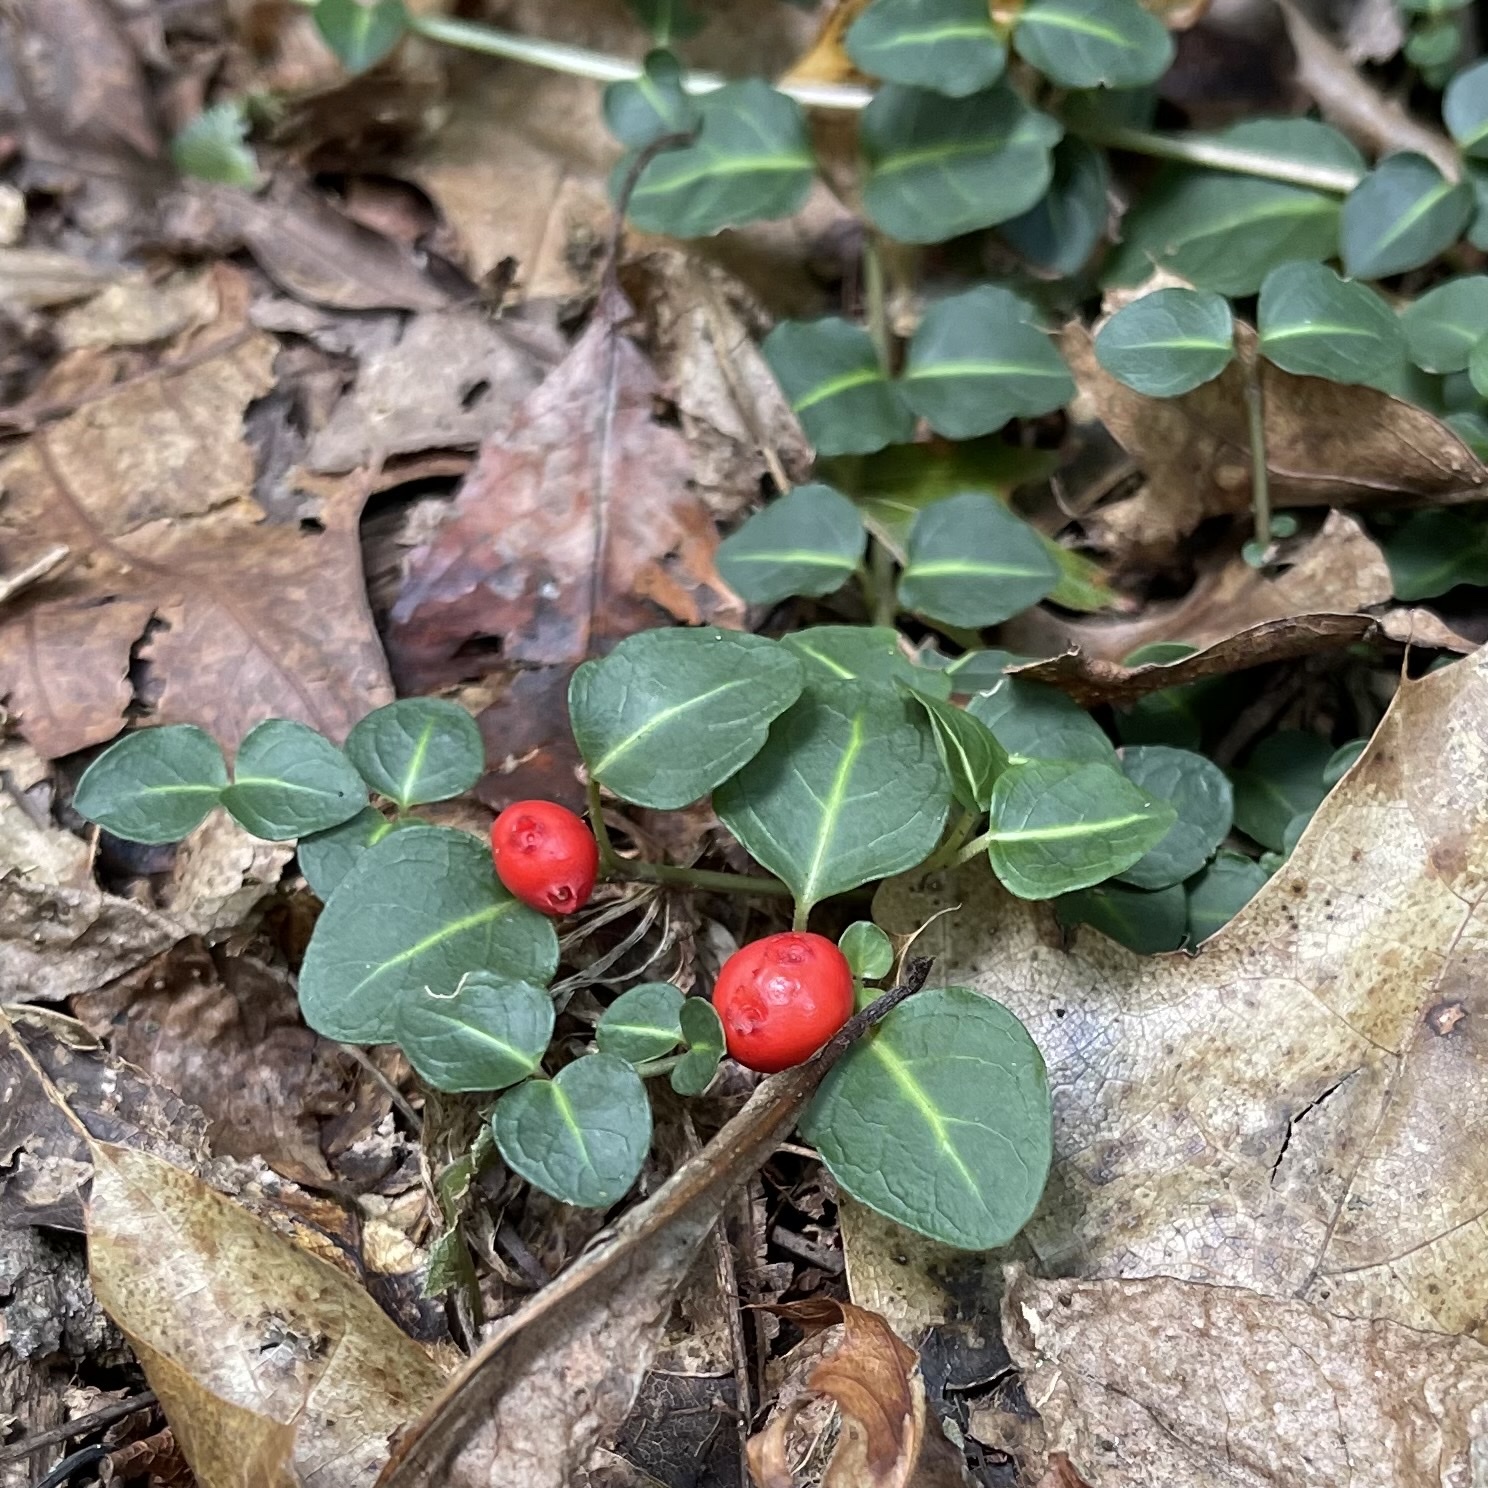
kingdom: Plantae
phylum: Tracheophyta
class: Magnoliopsida
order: Gentianales
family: Rubiaceae
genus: Mitchella
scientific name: Mitchella repens
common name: Partridge-berry
